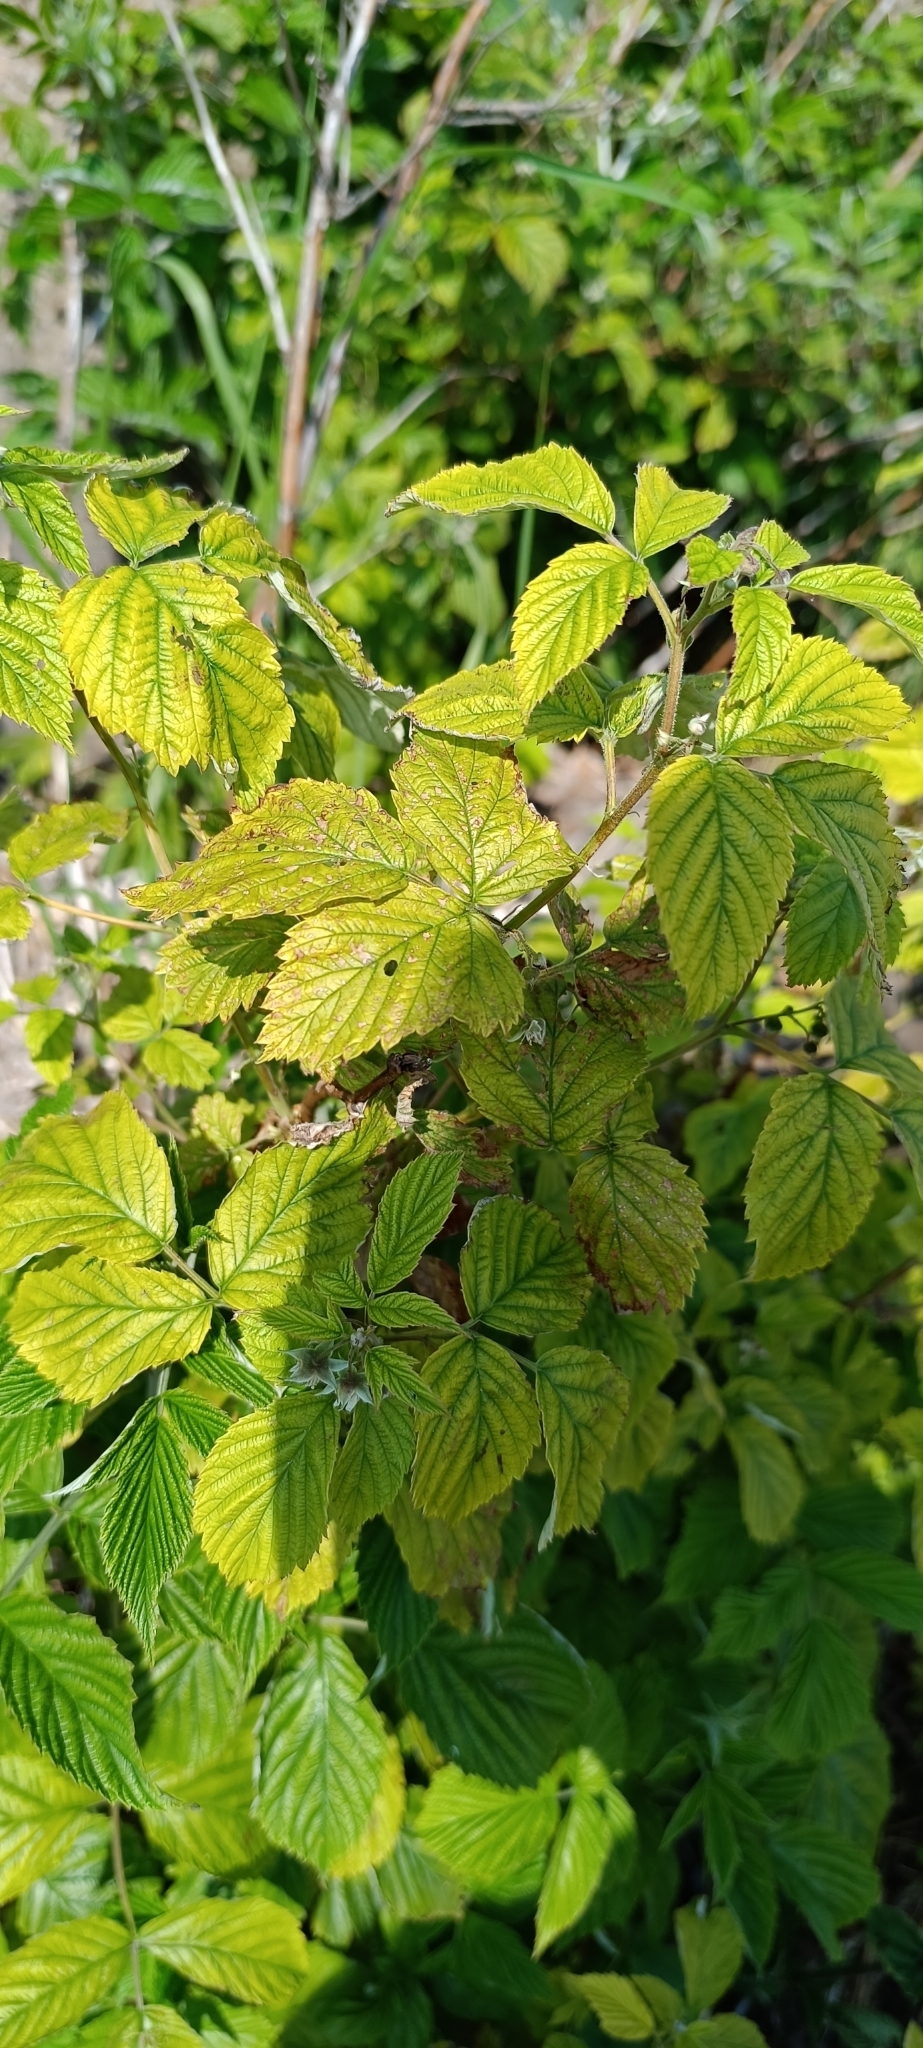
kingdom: Plantae
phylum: Tracheophyta
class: Magnoliopsida
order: Rosales
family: Rosaceae
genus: Rubus
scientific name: Rubus idaeus
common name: Raspberry
